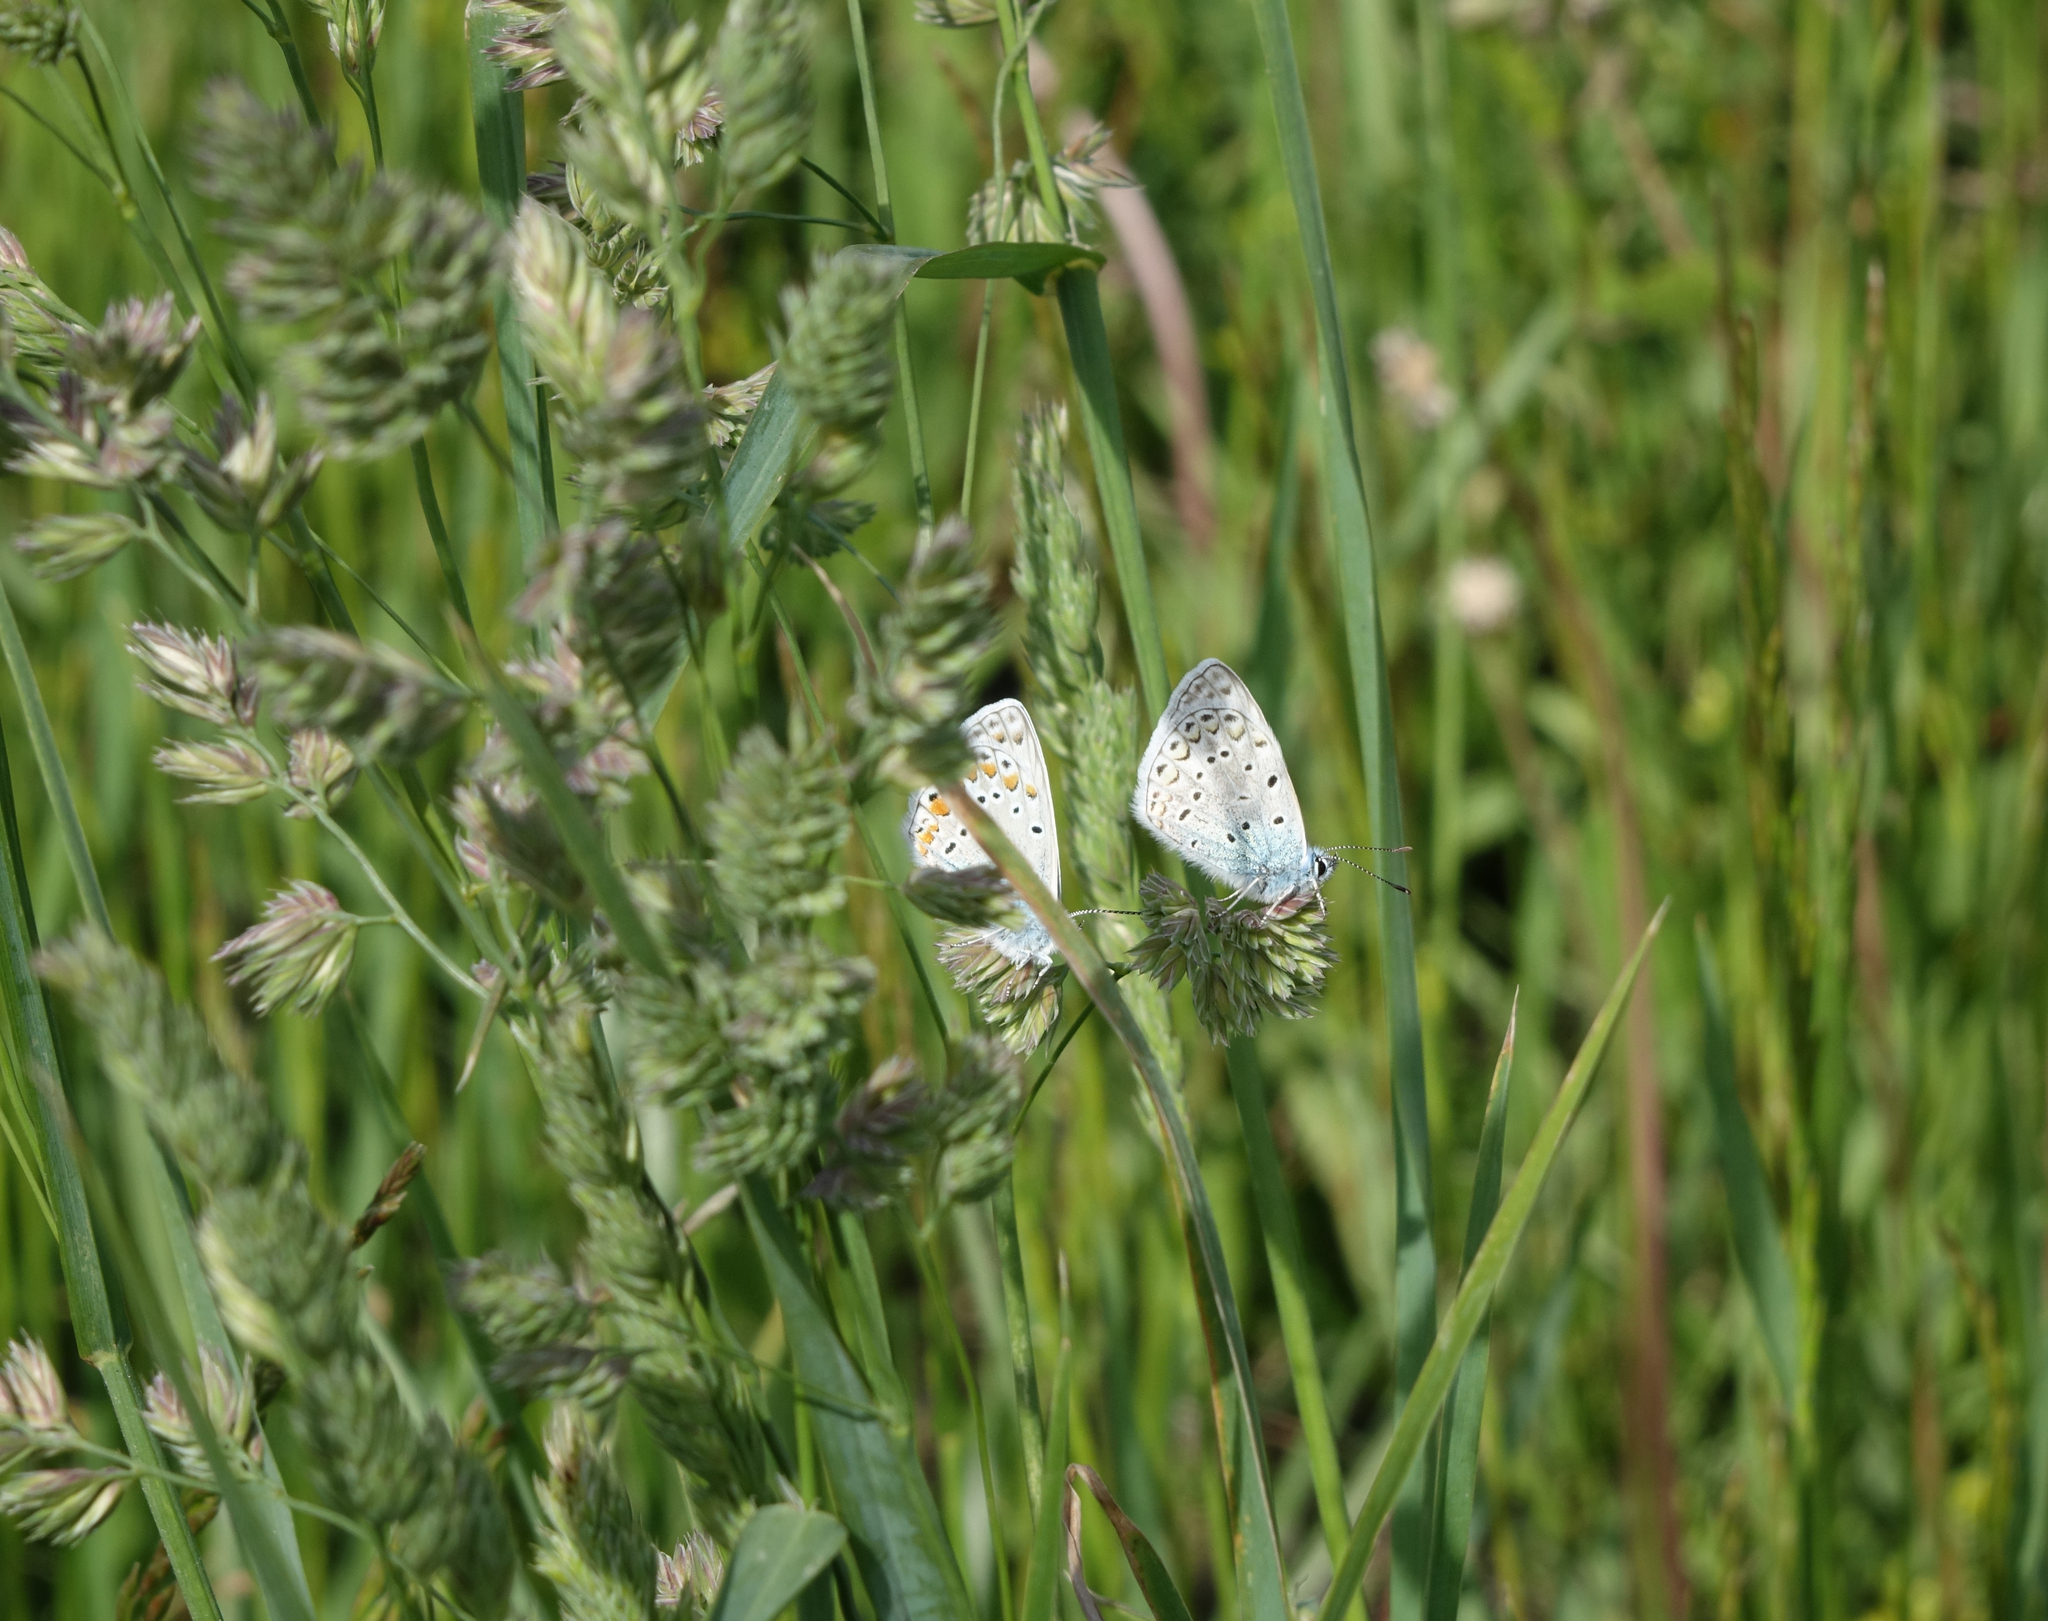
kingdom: Plantae
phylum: Tracheophyta
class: Liliopsida
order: Poales
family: Poaceae
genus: Dactylis
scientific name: Dactylis glomerata
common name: Orchardgrass
